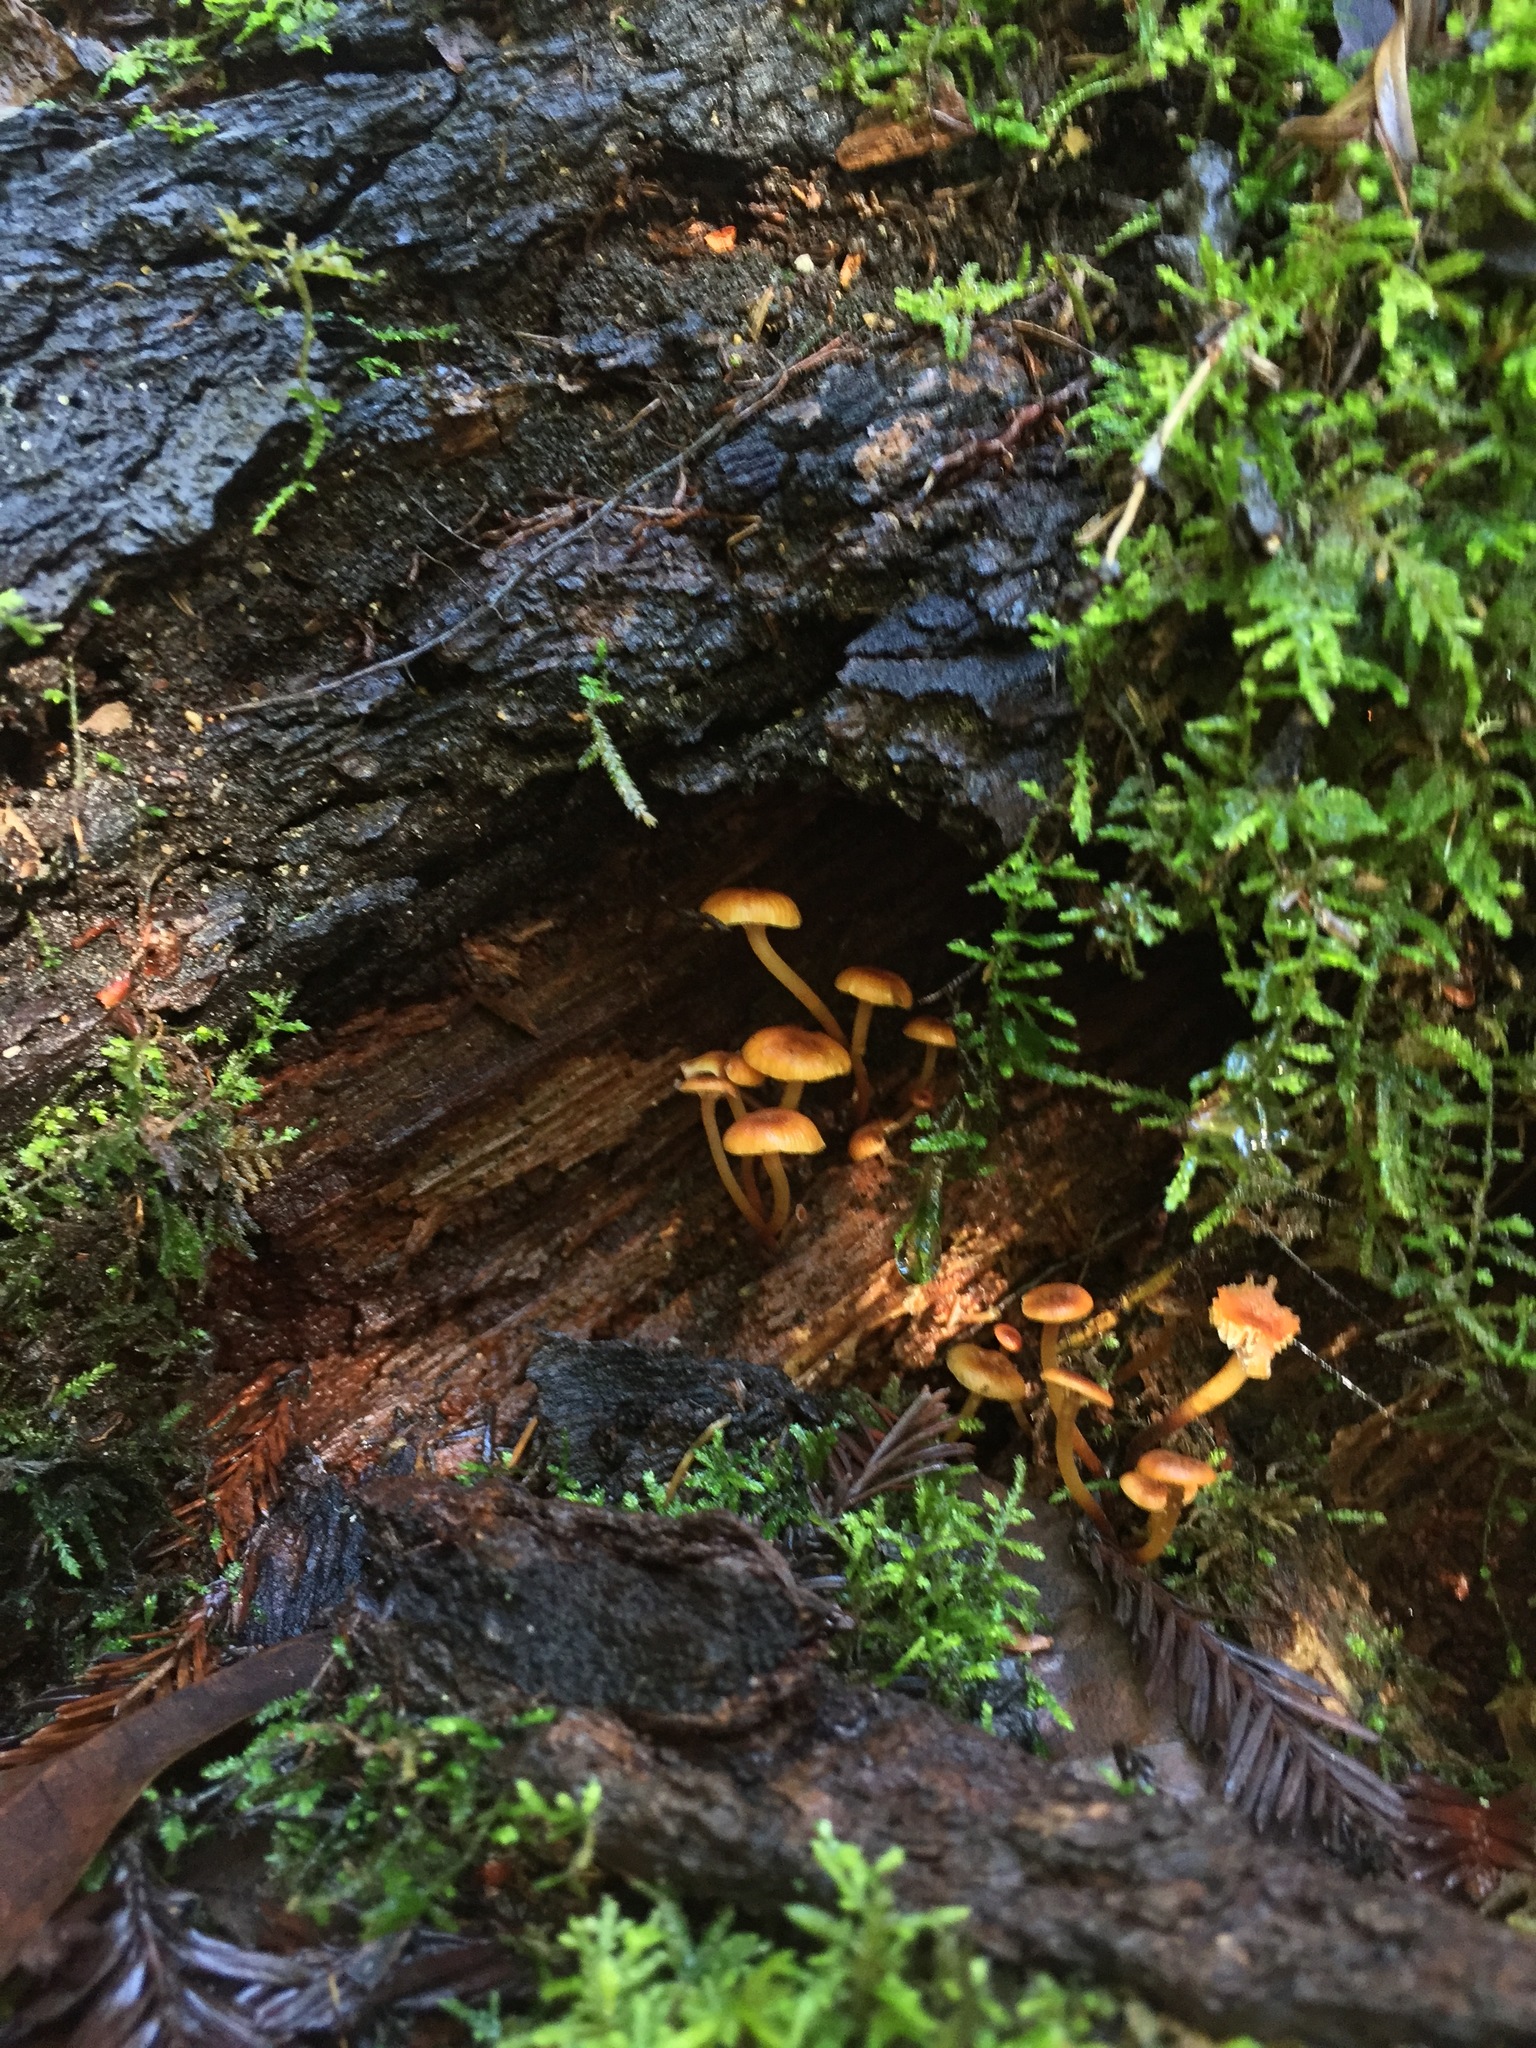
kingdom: Fungi
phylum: Basidiomycota
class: Agaricomycetes
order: Agaricales
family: Mycenaceae
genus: Xeromphalina
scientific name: Xeromphalina campanella
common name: Pinewood gingertail
